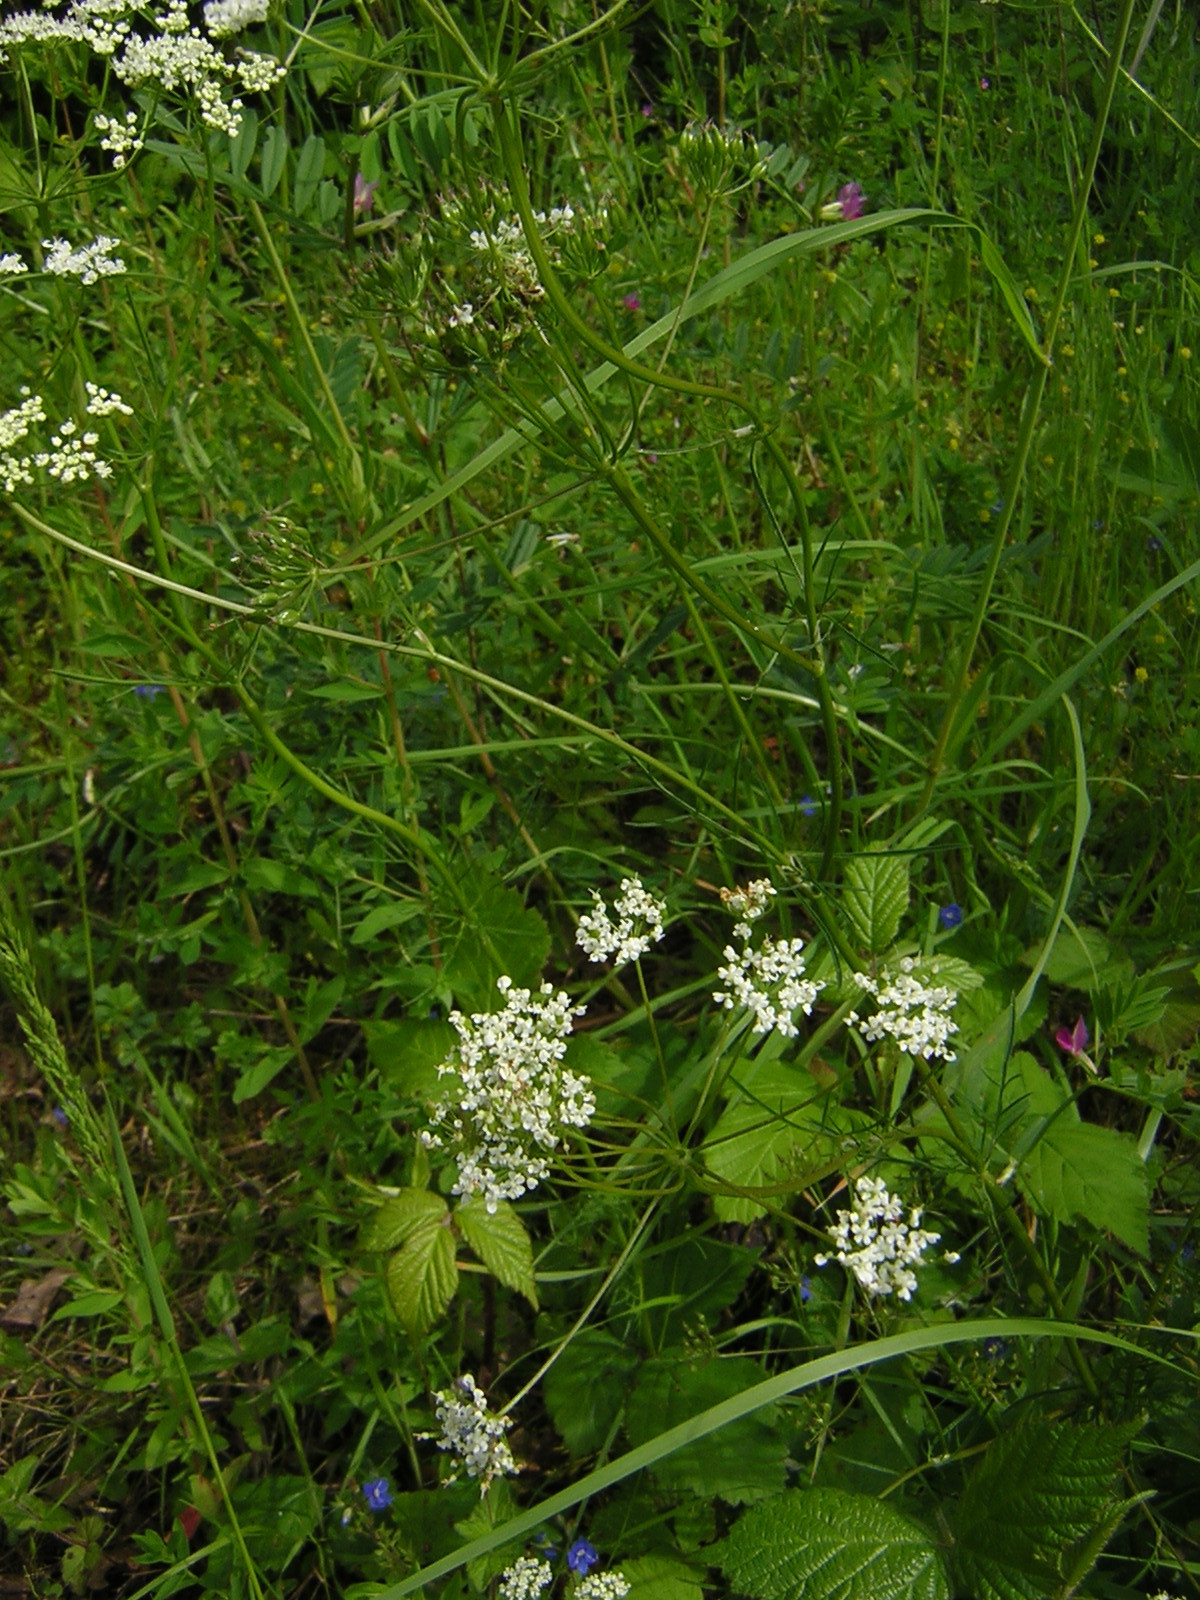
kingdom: Plantae
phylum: Tracheophyta
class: Magnoliopsida
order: Apiales
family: Apiaceae
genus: Conopodium
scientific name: Conopodium majus
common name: Pignut
